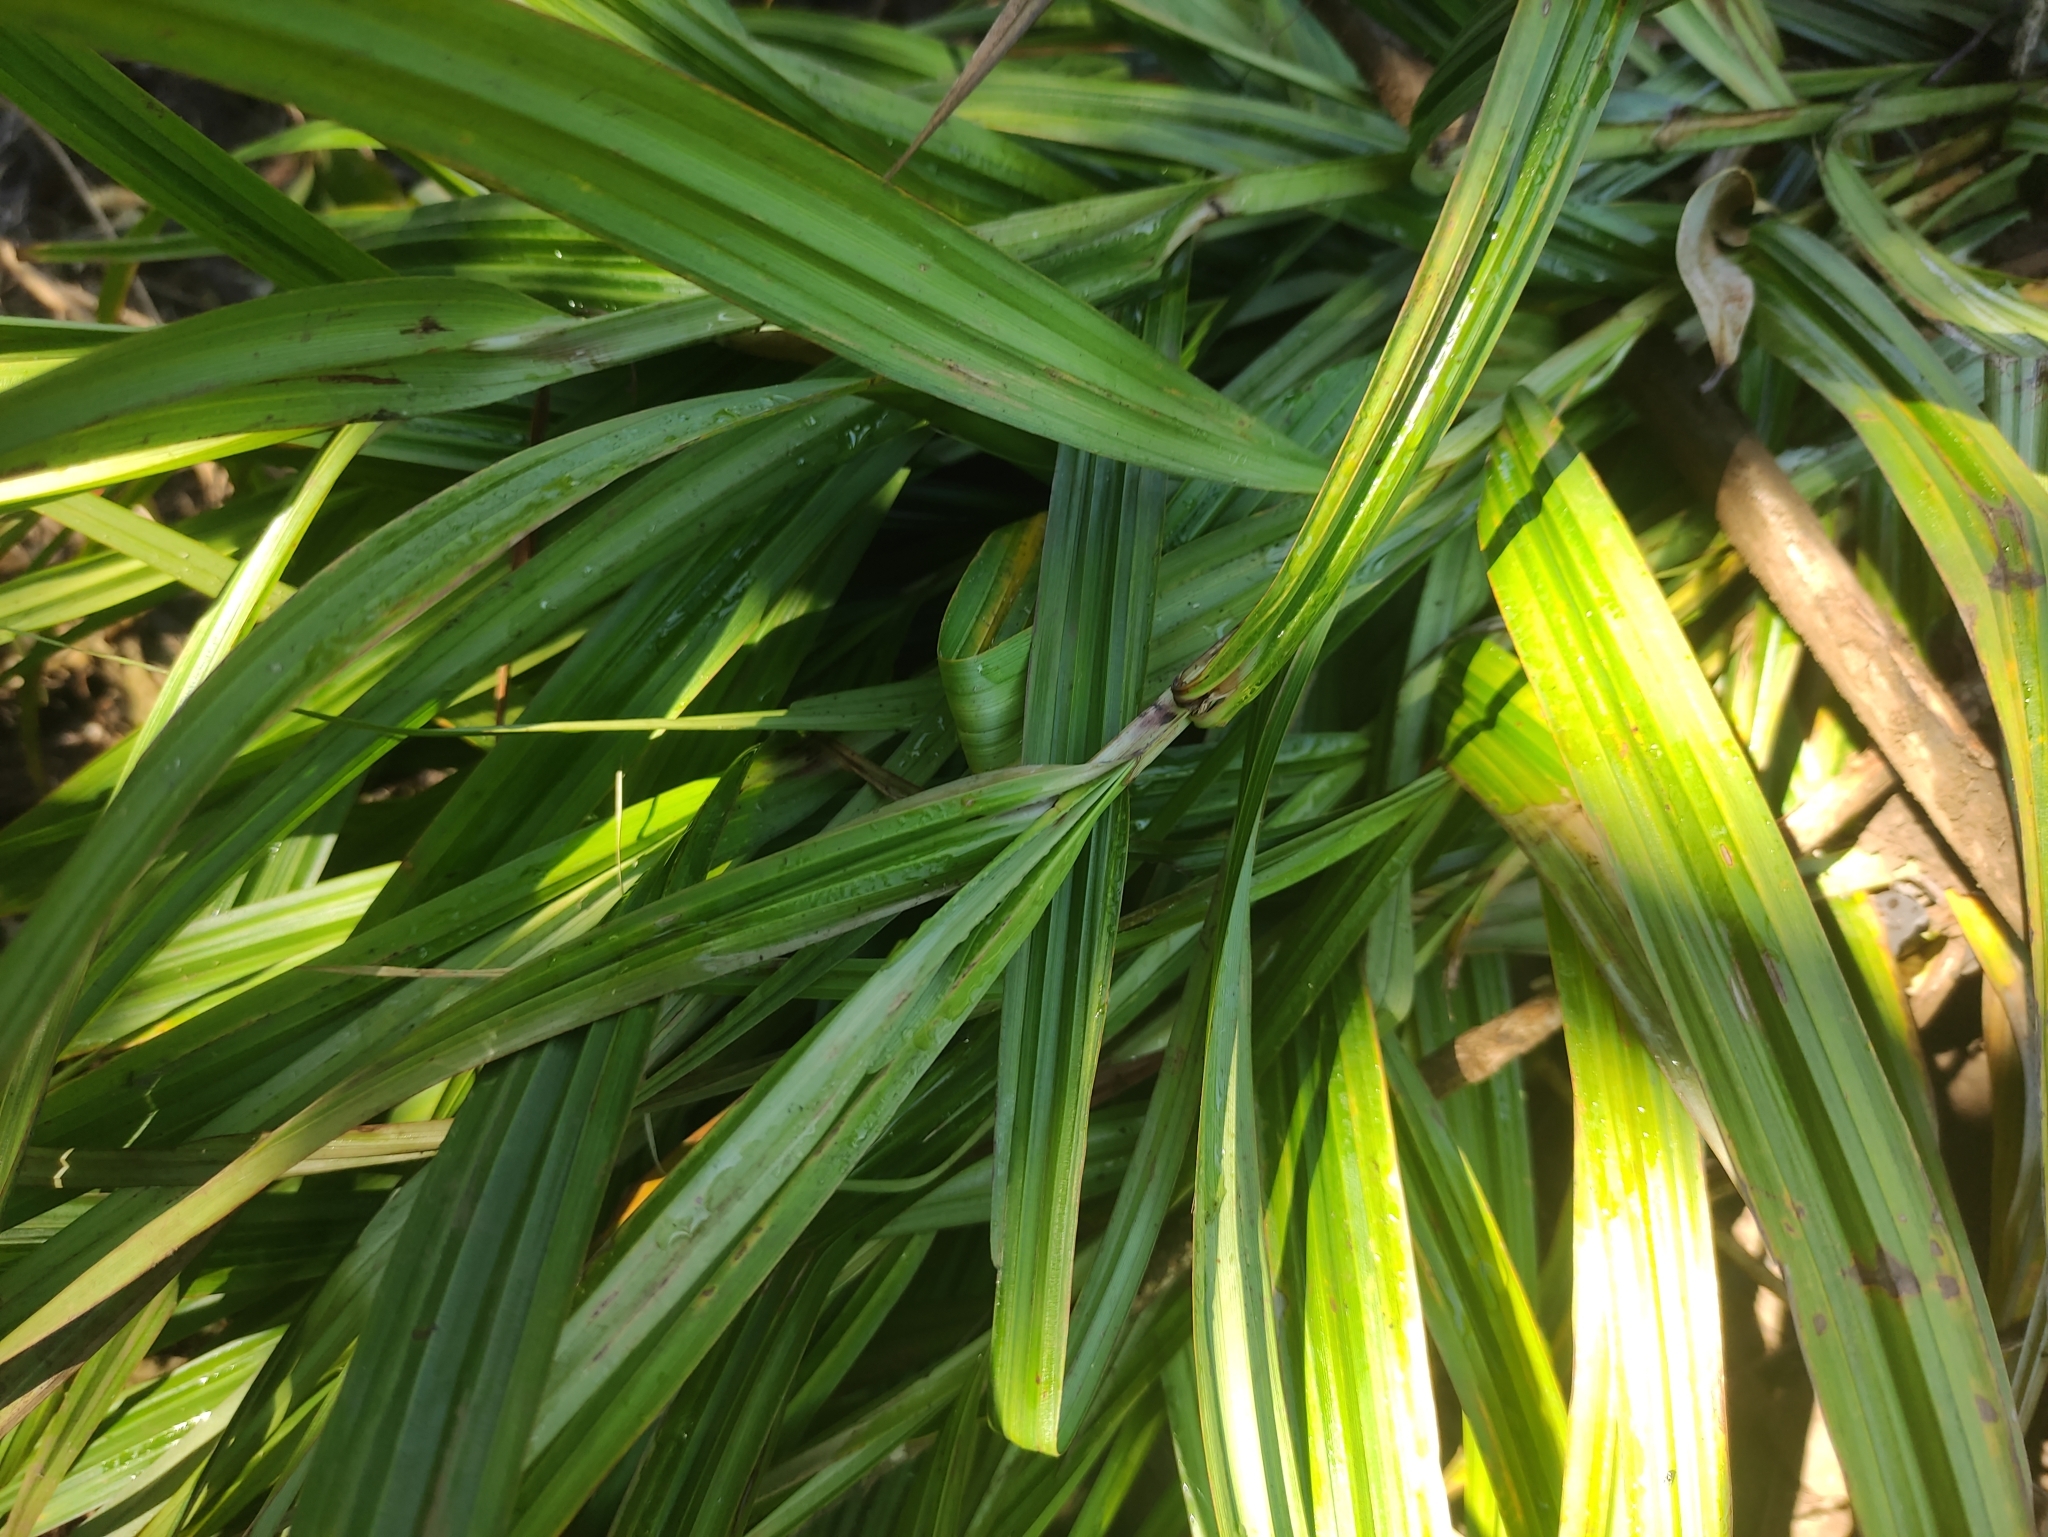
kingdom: Plantae
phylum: Tracheophyta
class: Liliopsida
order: Poales
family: Cyperaceae
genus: Scleria
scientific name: Scleria gaertneri
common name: Cortadera blanca
